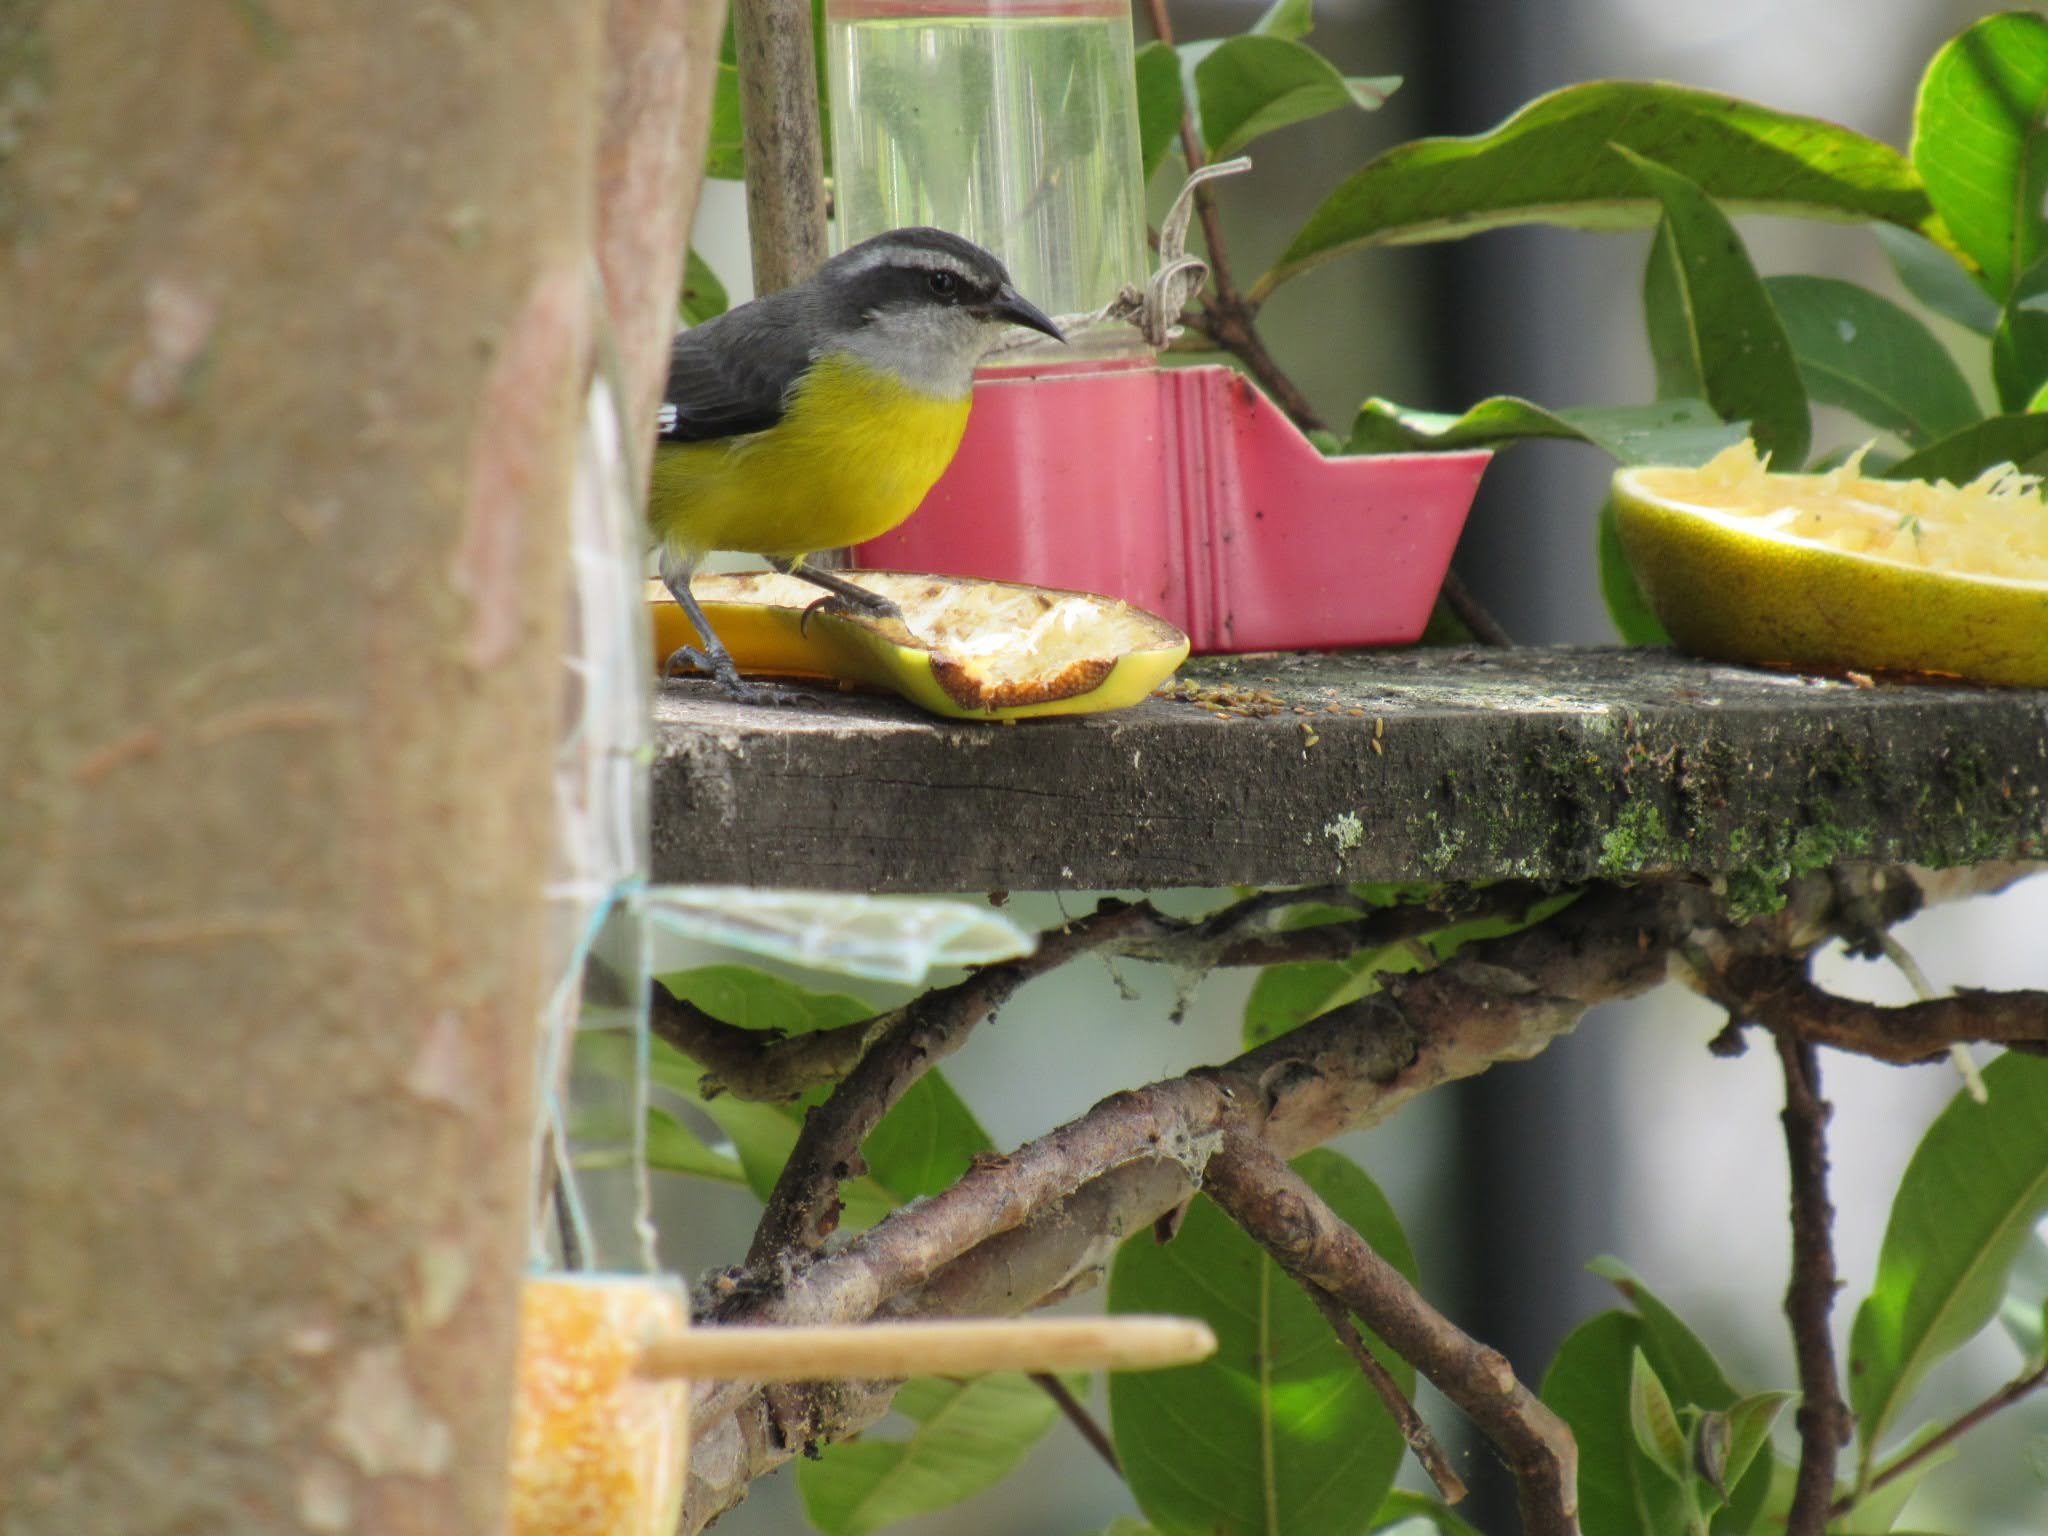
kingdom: Animalia
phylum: Chordata
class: Aves
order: Passeriformes
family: Tyrannidae
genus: Pitangus
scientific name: Pitangus sulphuratus
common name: Great kiskadee
